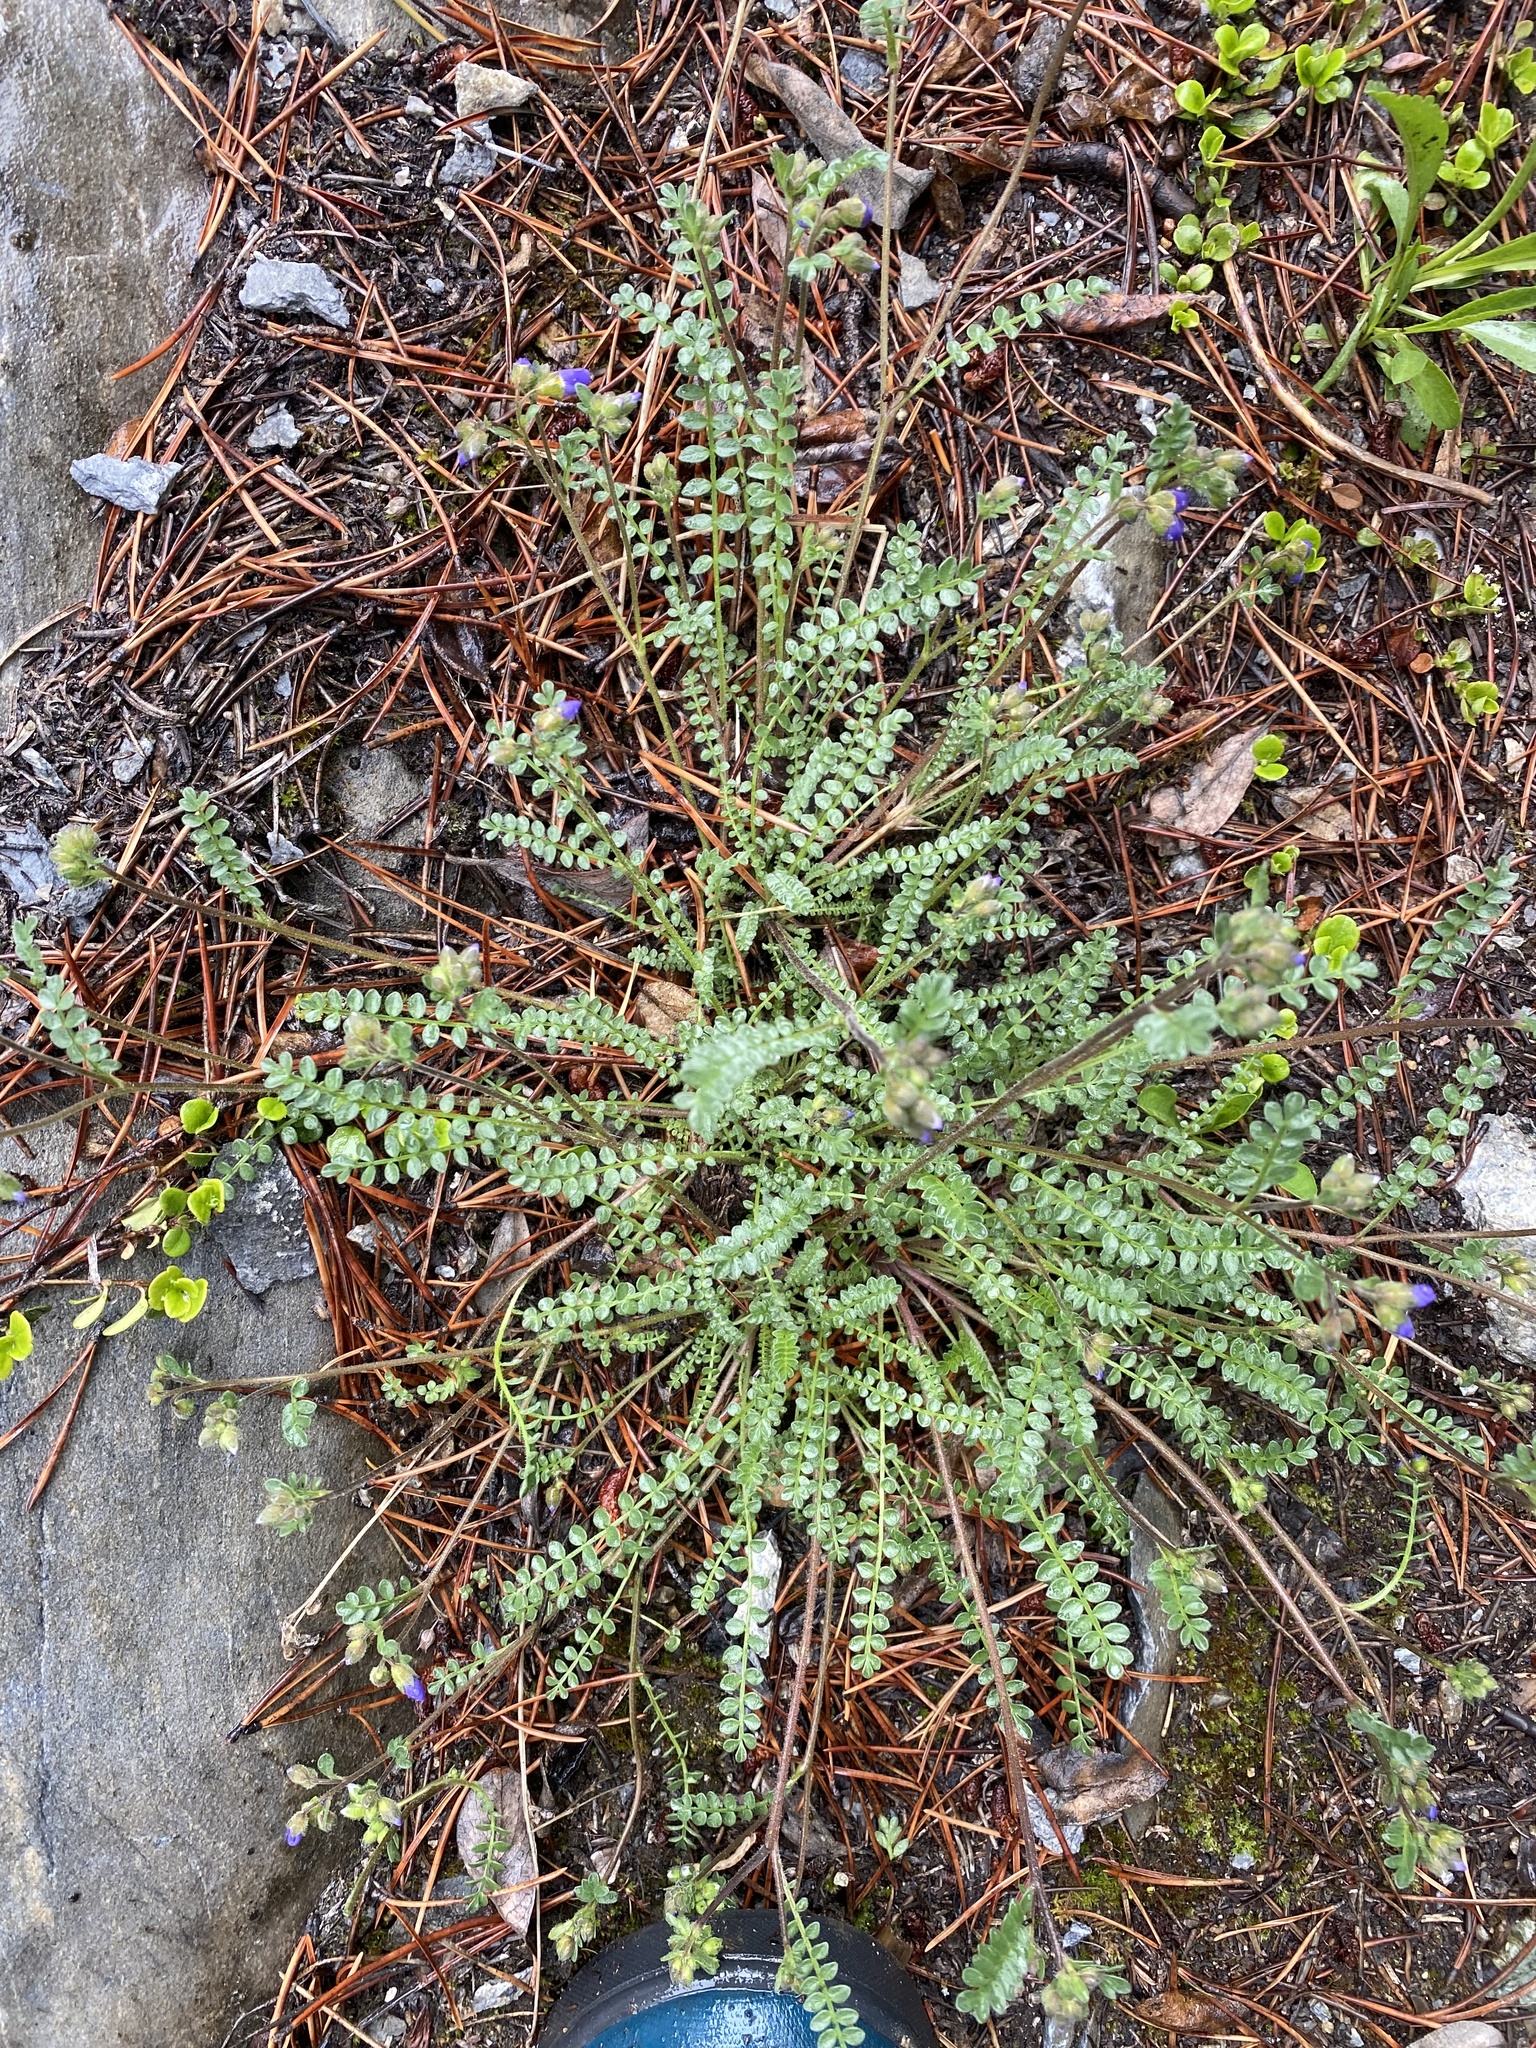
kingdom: Plantae
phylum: Tracheophyta
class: Magnoliopsida
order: Ericales
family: Polemoniaceae
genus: Polemonium
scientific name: Polemonium pulcherrimum
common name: Short jacob's-ladder
